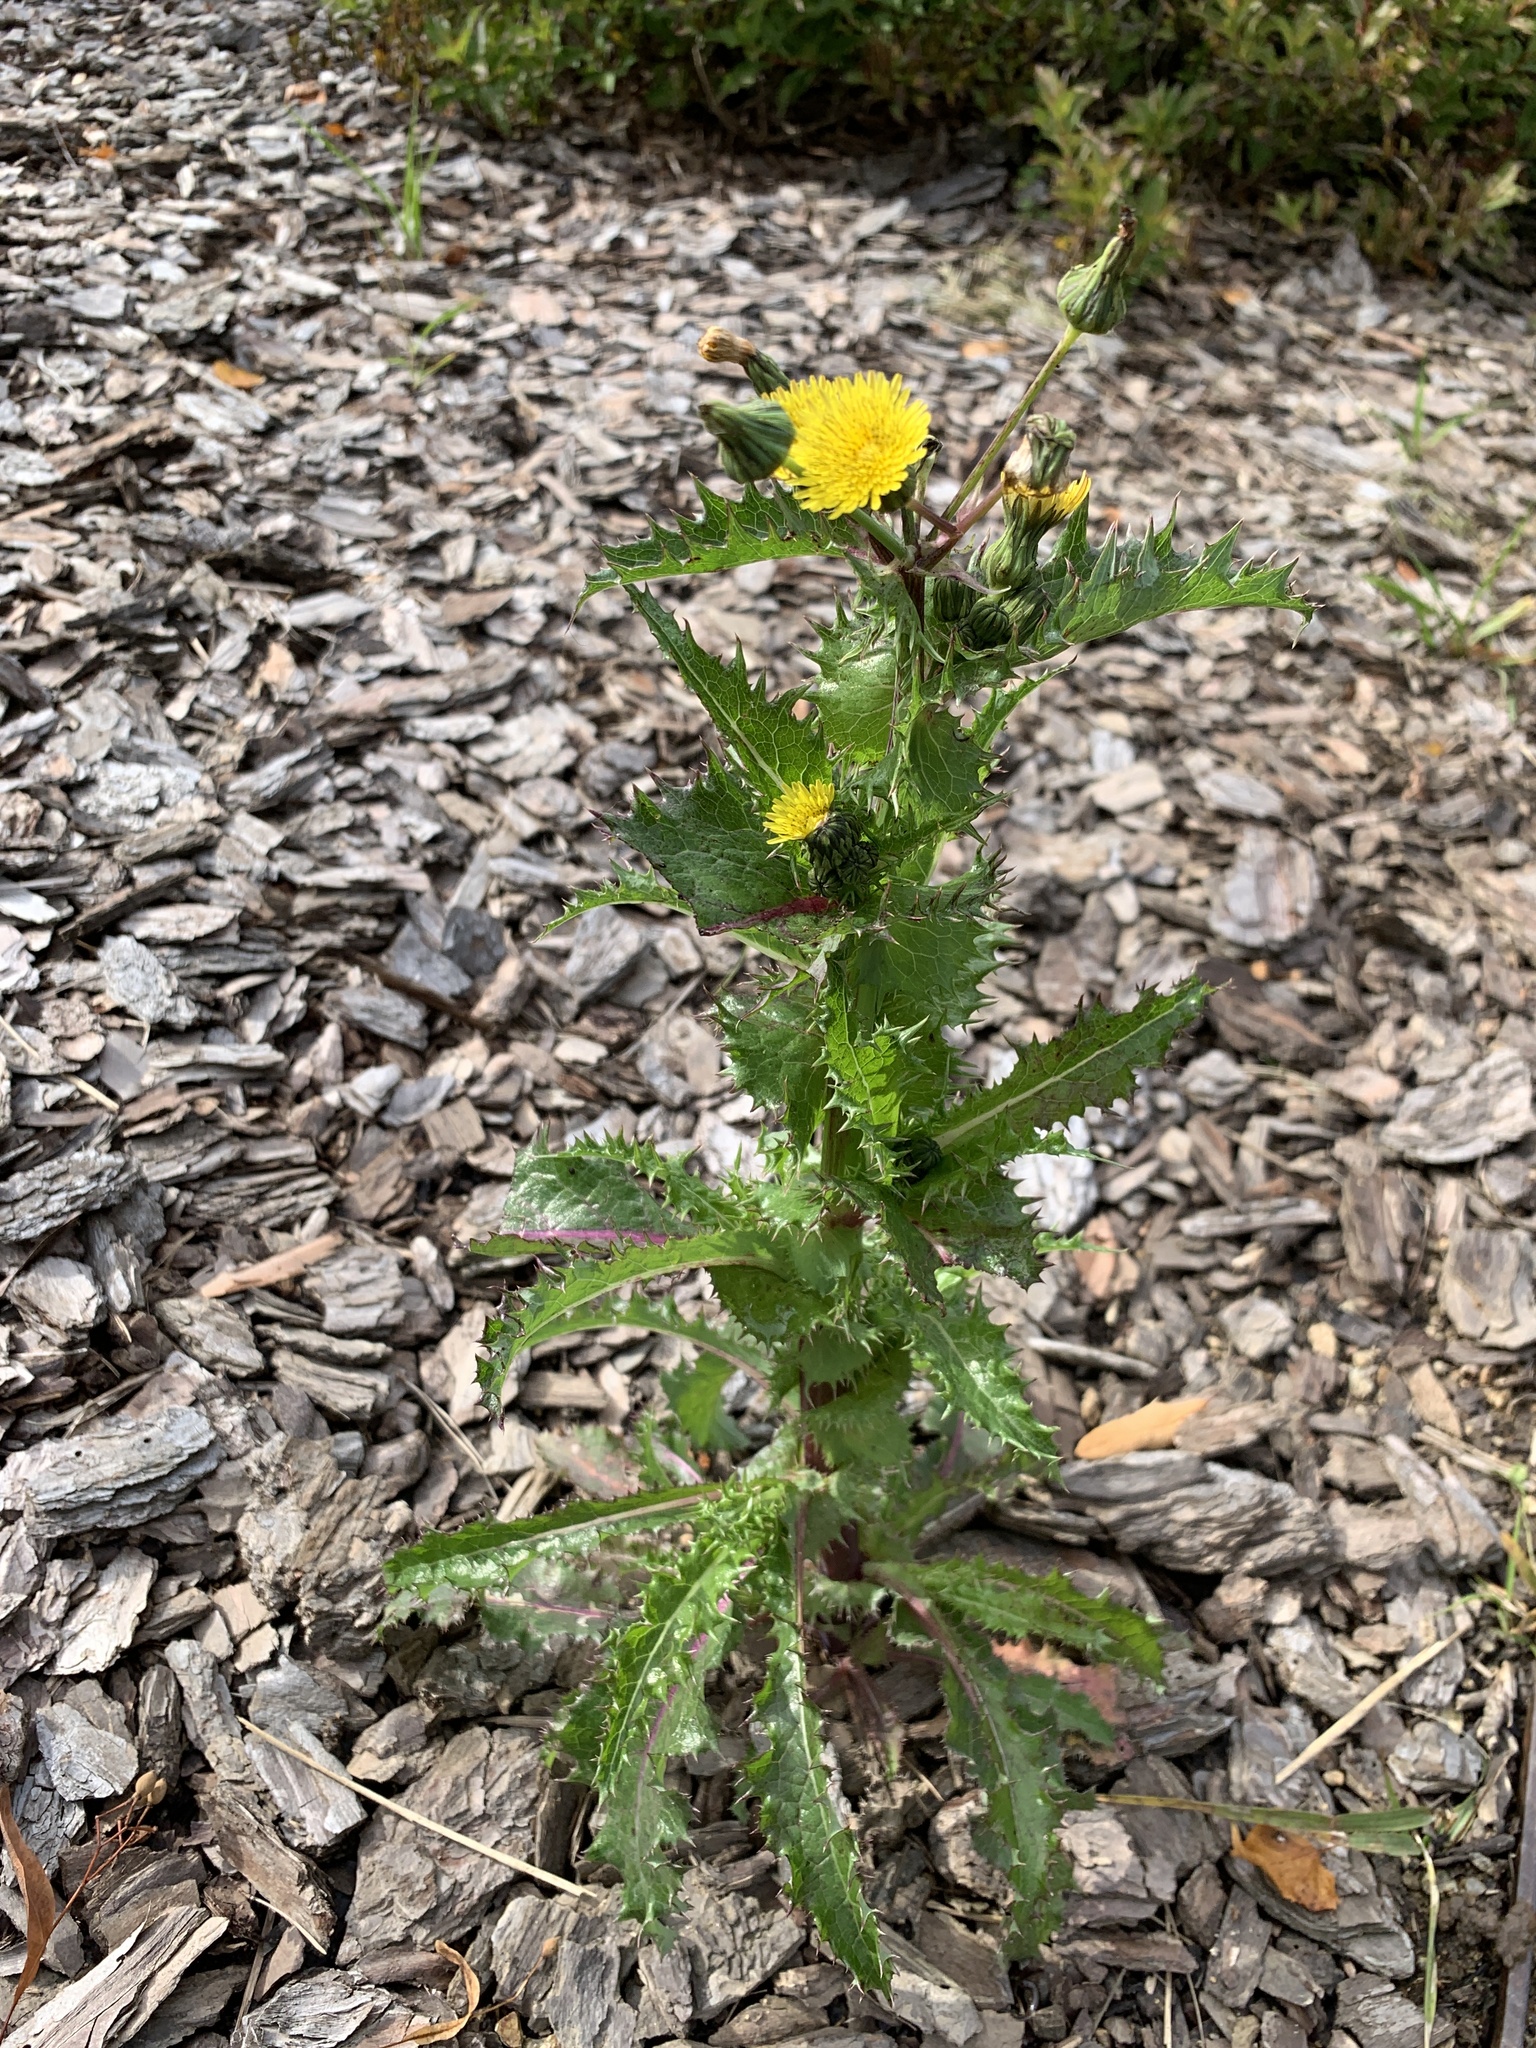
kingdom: Plantae
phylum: Tracheophyta
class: Magnoliopsida
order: Asterales
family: Asteraceae
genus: Sonchus
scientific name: Sonchus asper
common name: Prickly sow-thistle
